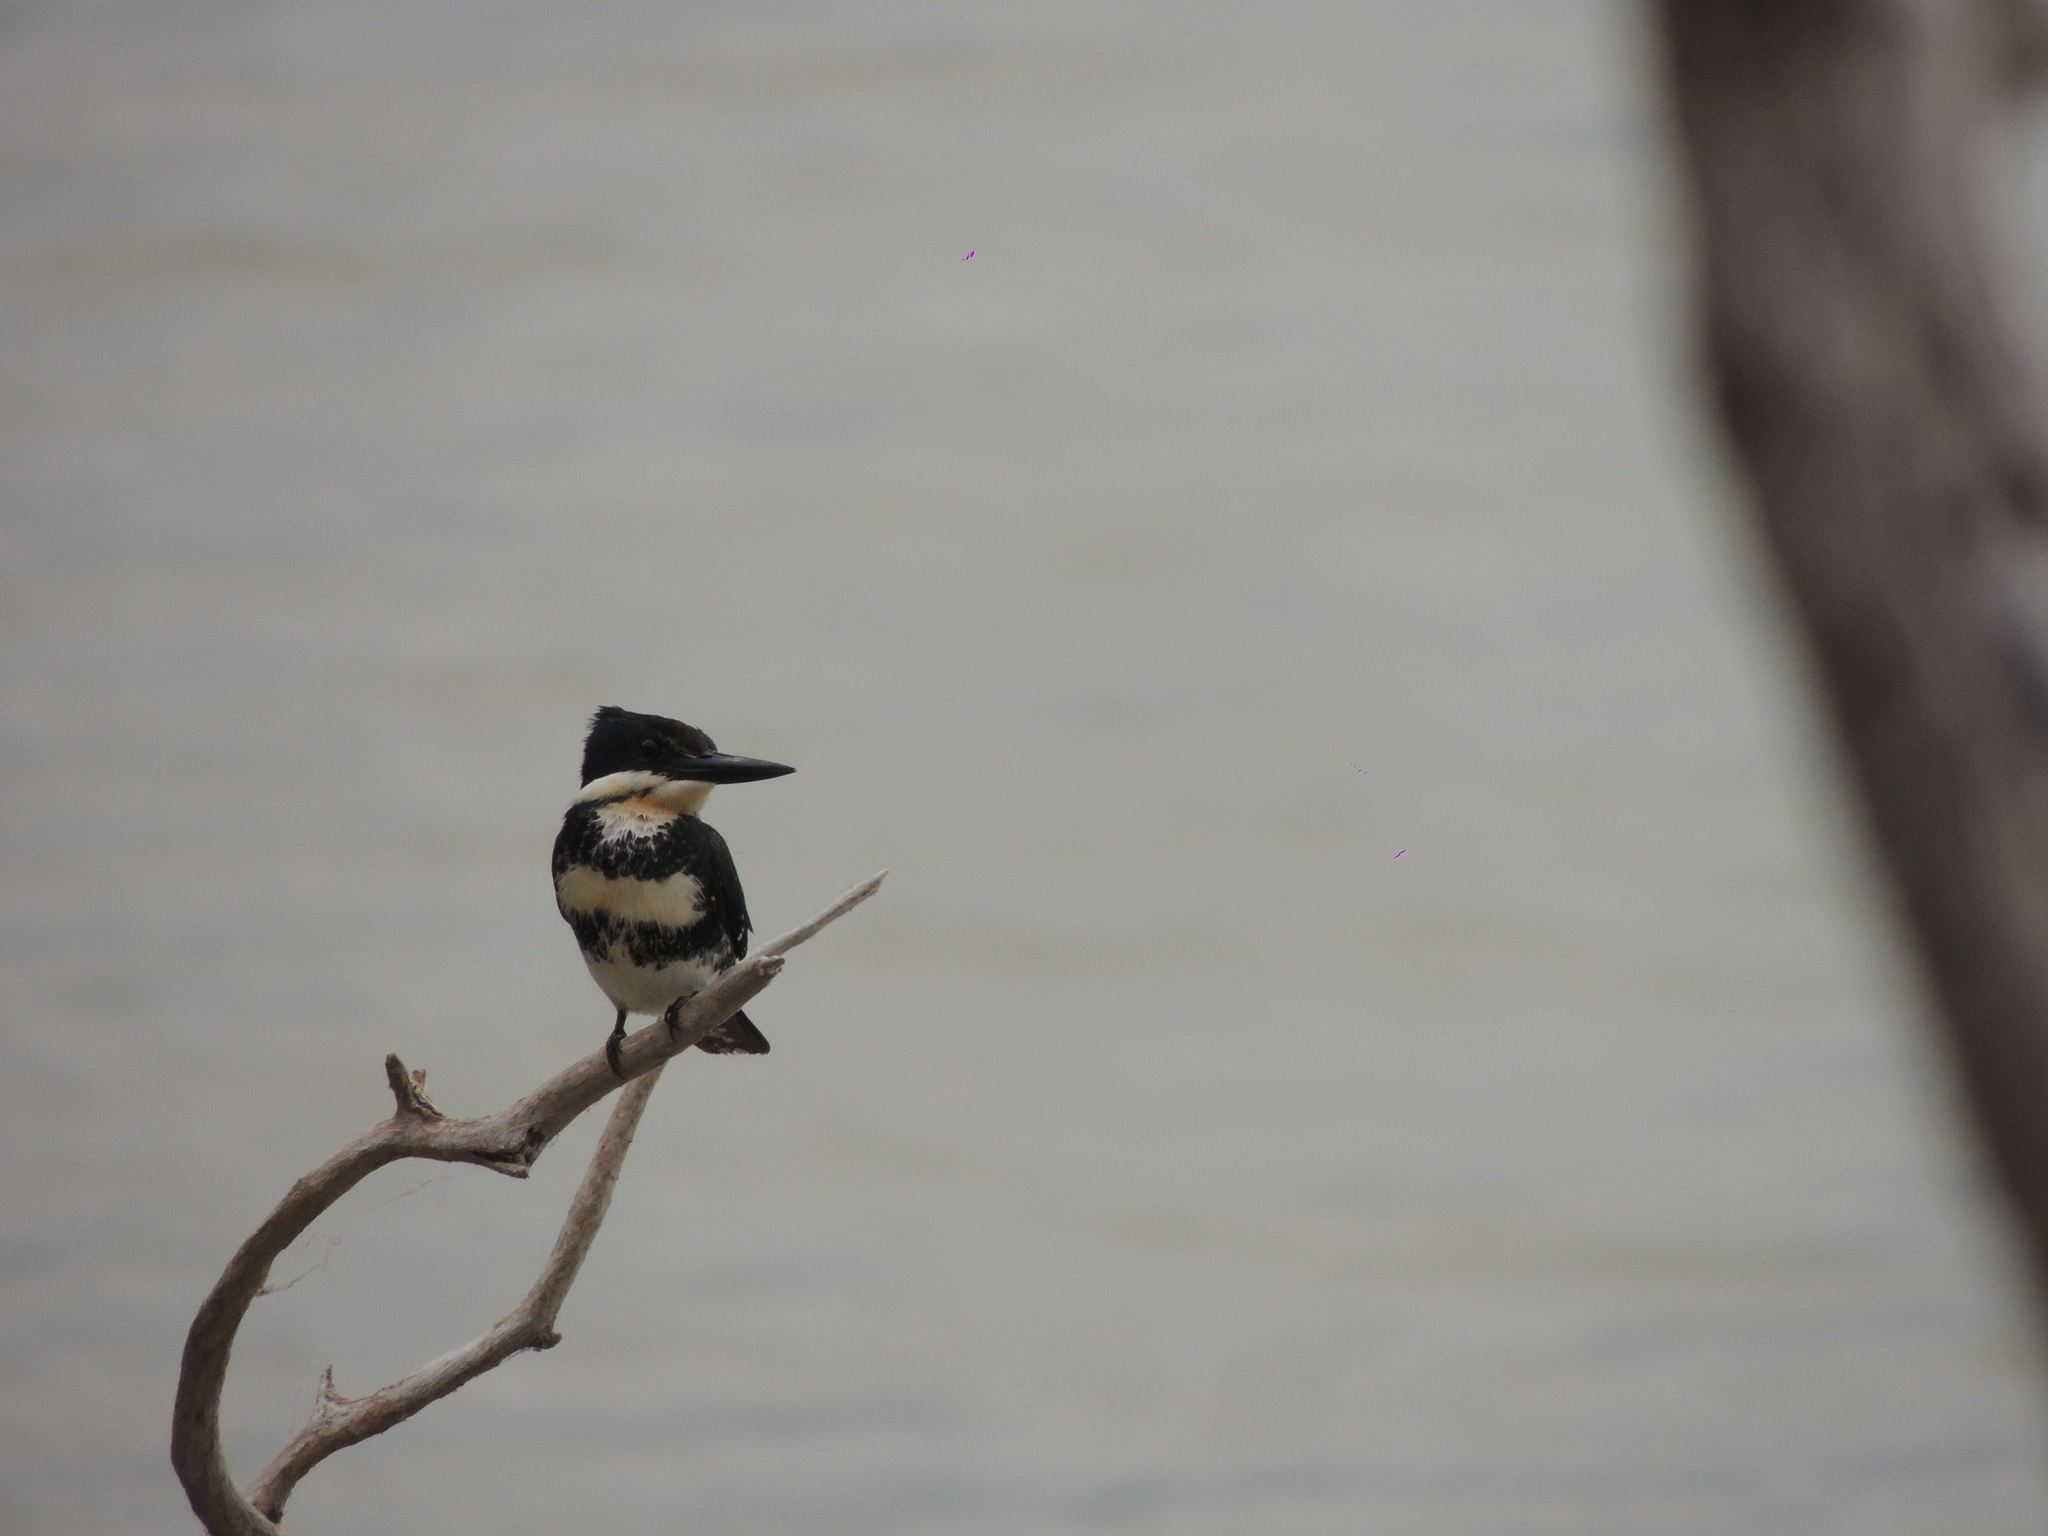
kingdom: Animalia
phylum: Chordata
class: Aves
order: Coraciiformes
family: Alcedinidae
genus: Chloroceryle
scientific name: Chloroceryle americana
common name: Green kingfisher
